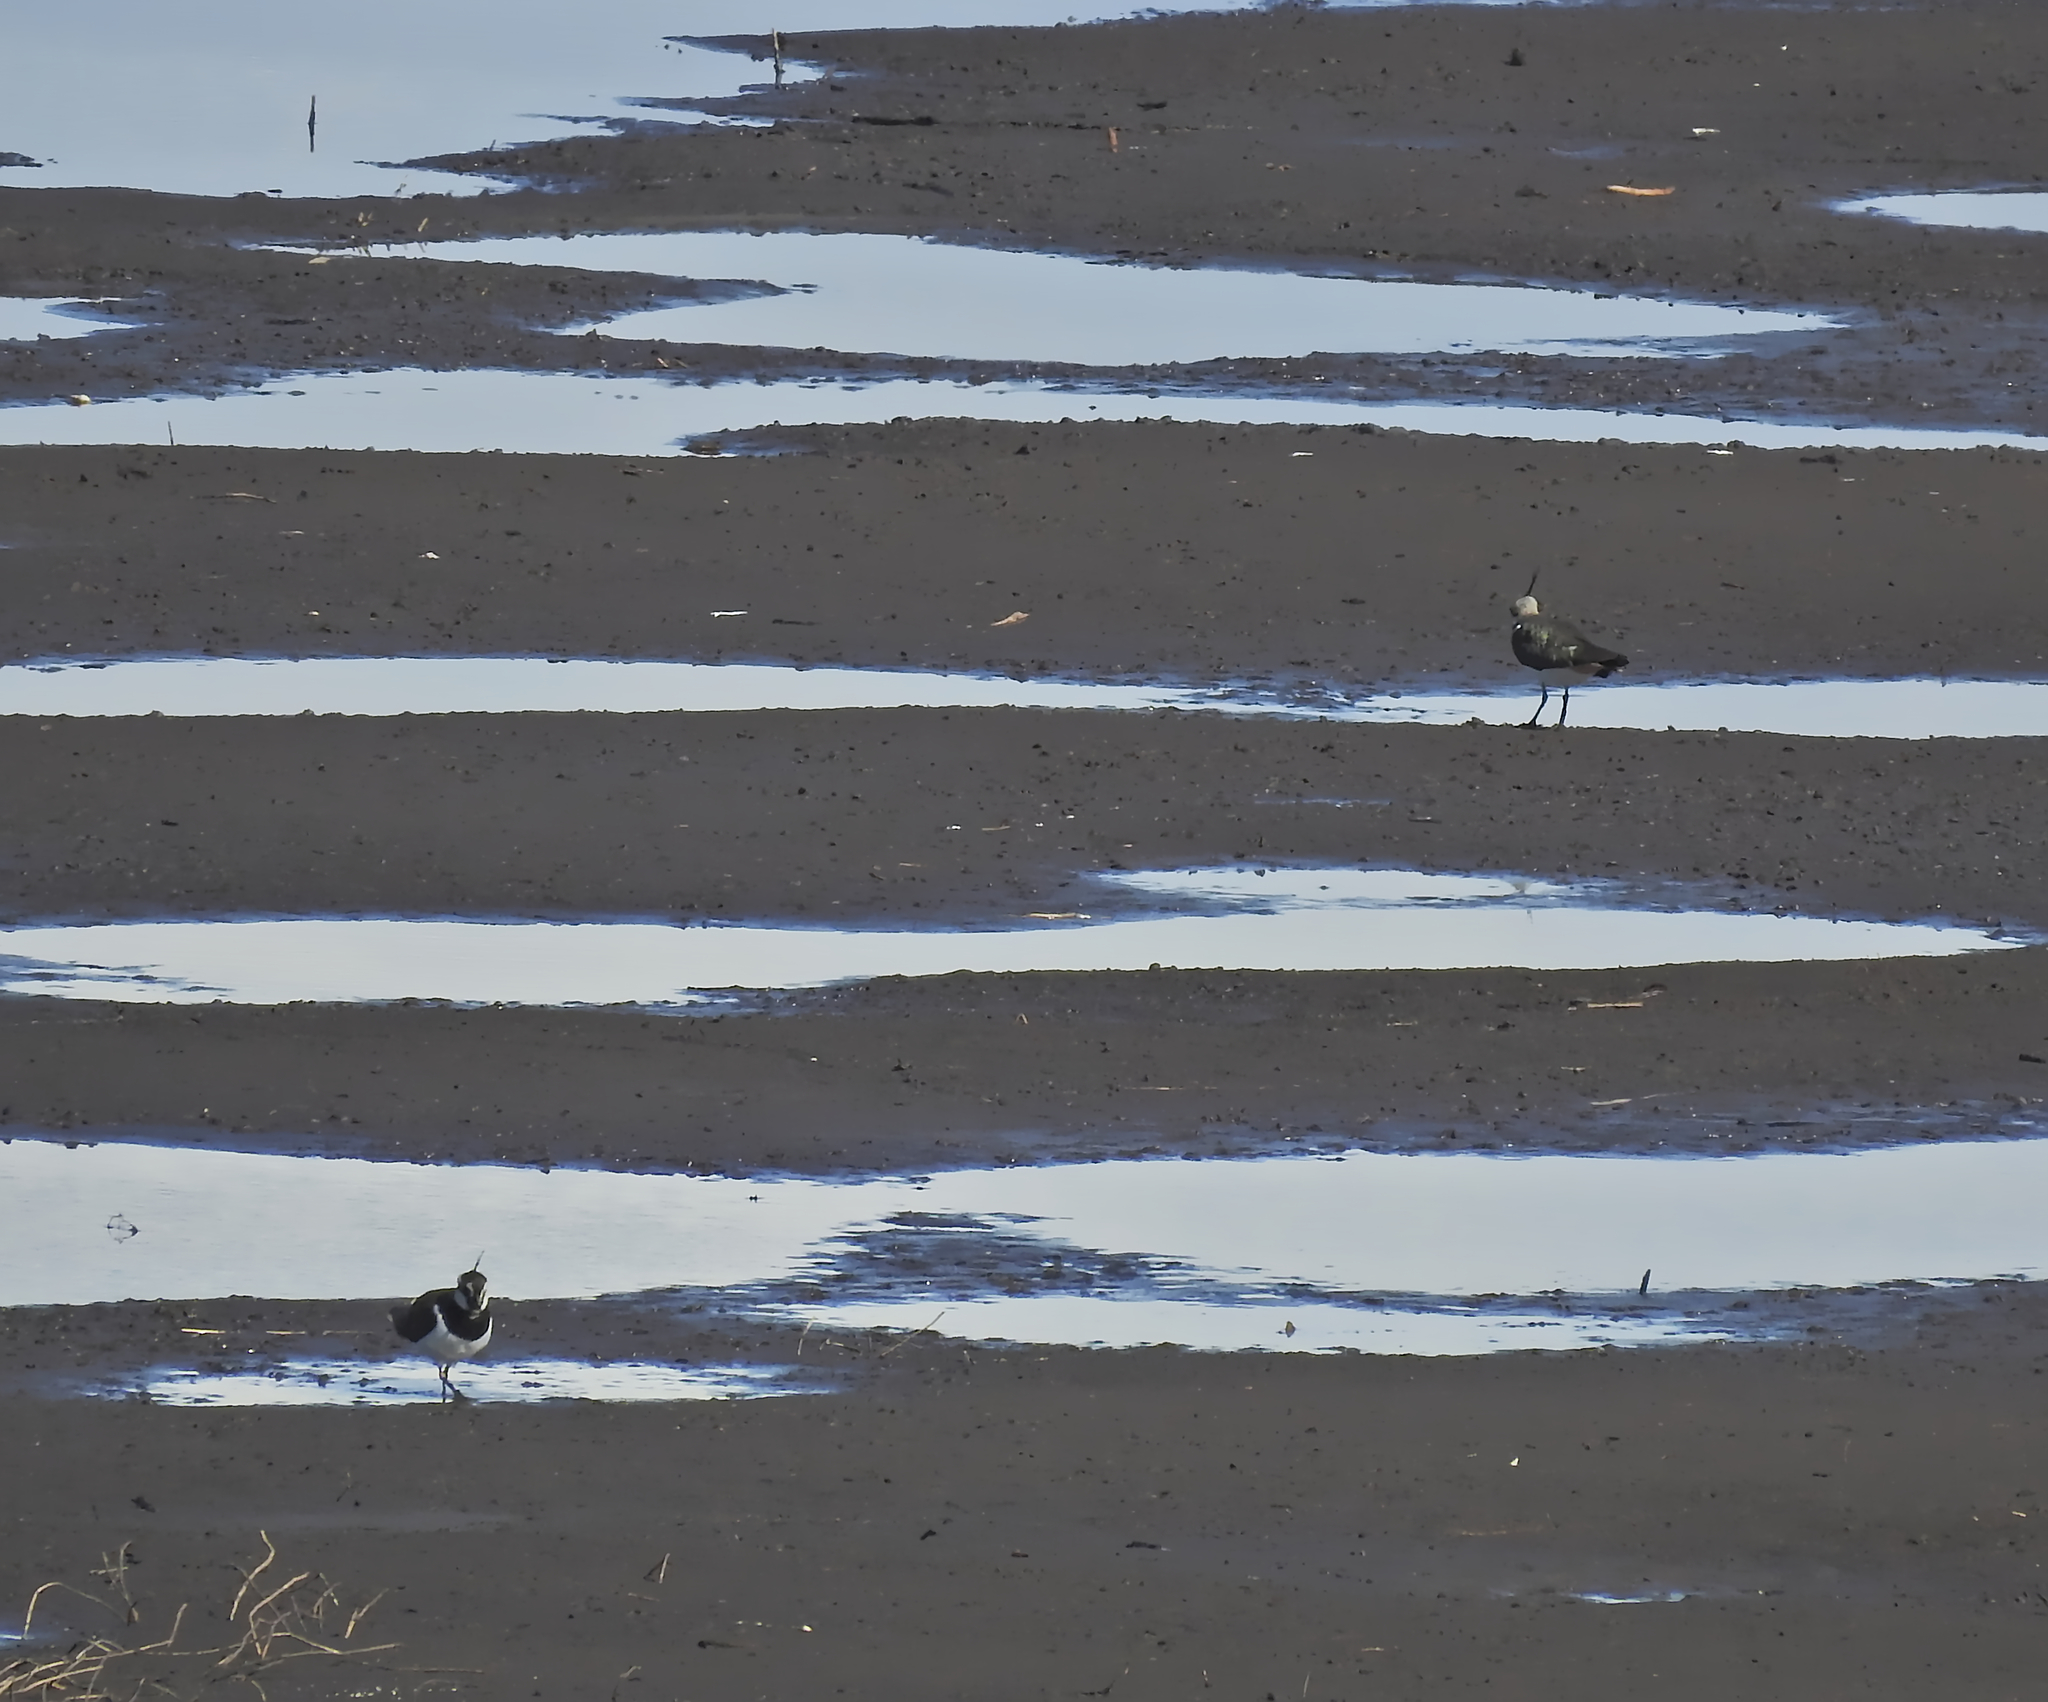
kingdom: Animalia
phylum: Chordata
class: Aves
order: Charadriiformes
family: Charadriidae
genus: Vanellus
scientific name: Vanellus vanellus
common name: Northern lapwing
